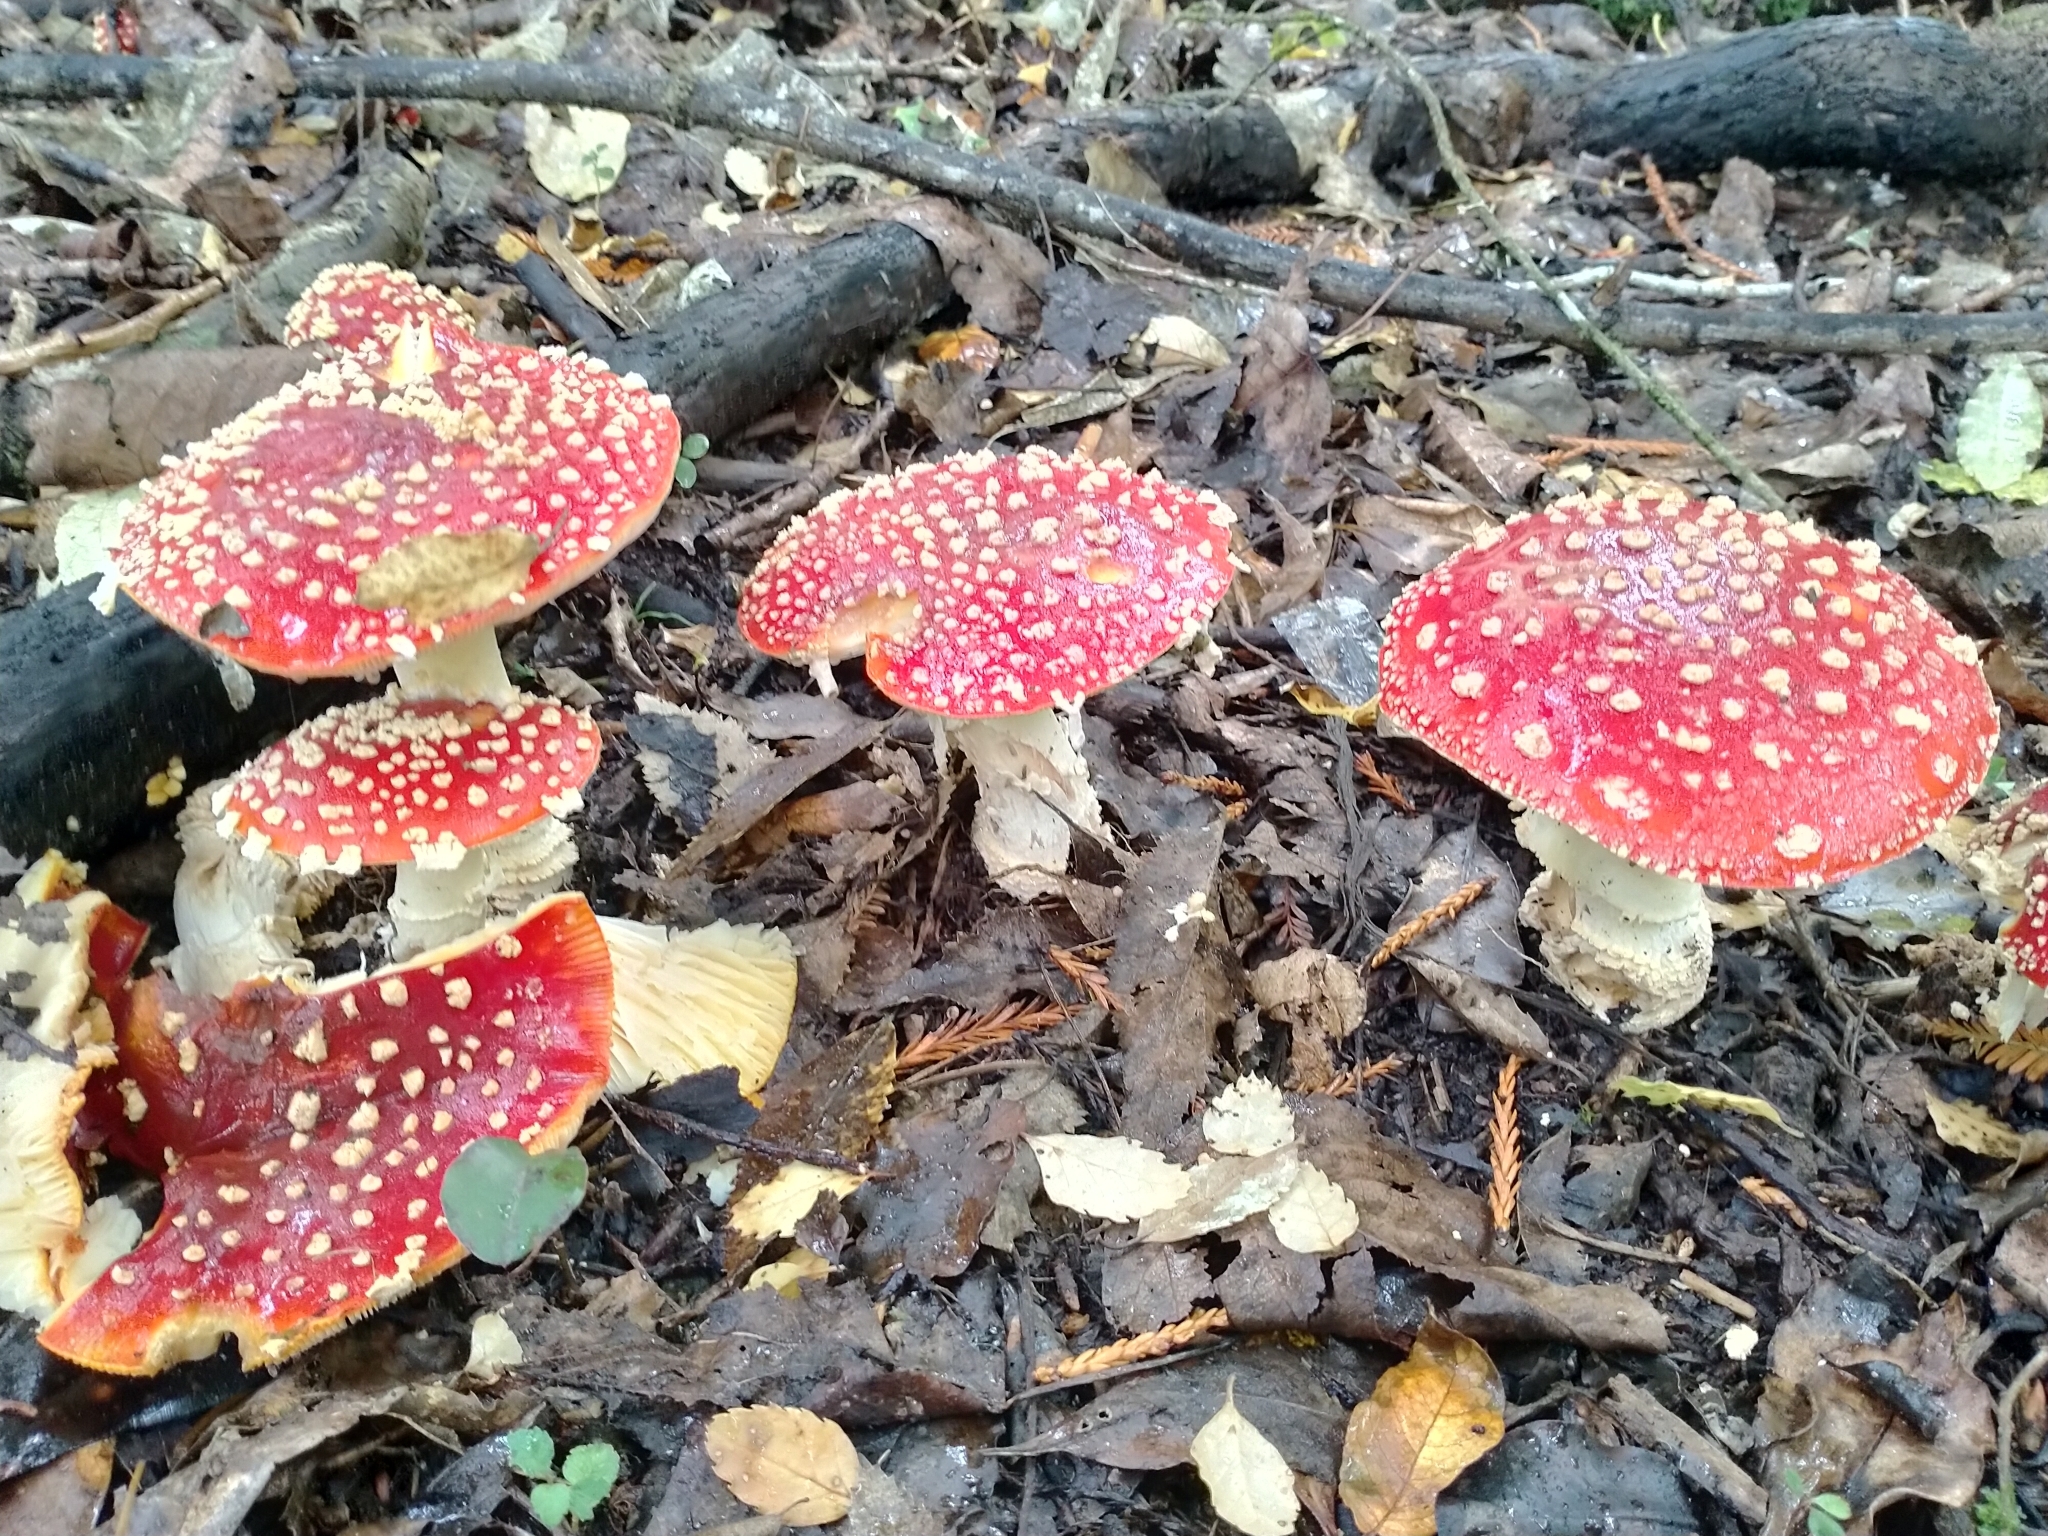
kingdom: Fungi
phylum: Basidiomycota
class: Agaricomycetes
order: Agaricales
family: Amanitaceae
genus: Amanita
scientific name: Amanita muscaria
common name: Fly agaric
